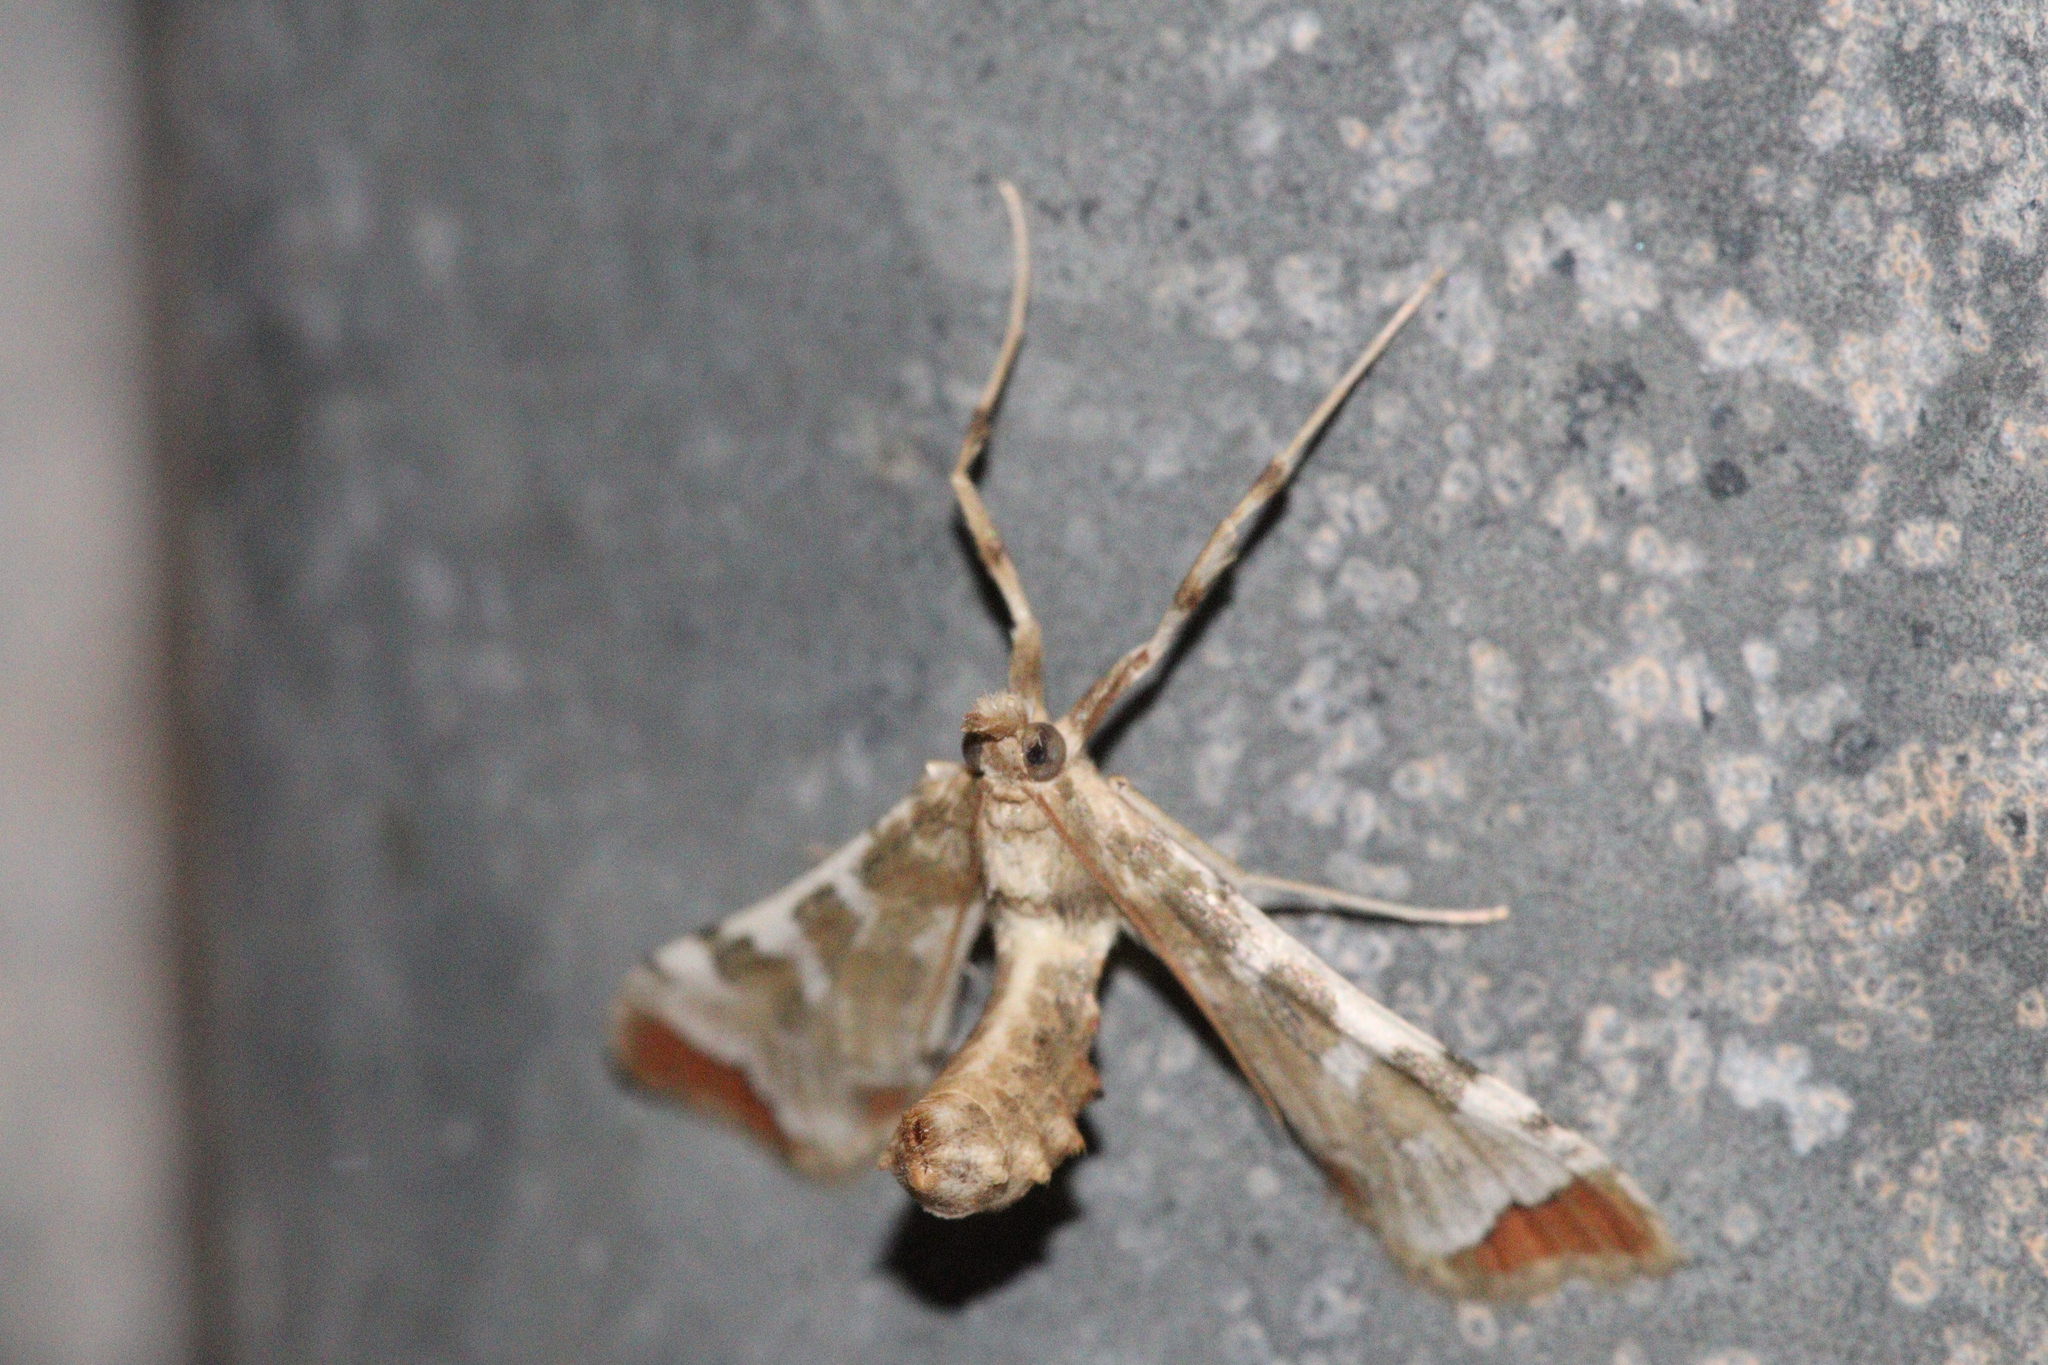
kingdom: Animalia
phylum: Arthropoda
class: Insecta
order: Lepidoptera
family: Crambidae
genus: Sceliodes
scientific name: Sceliodes cordalis
